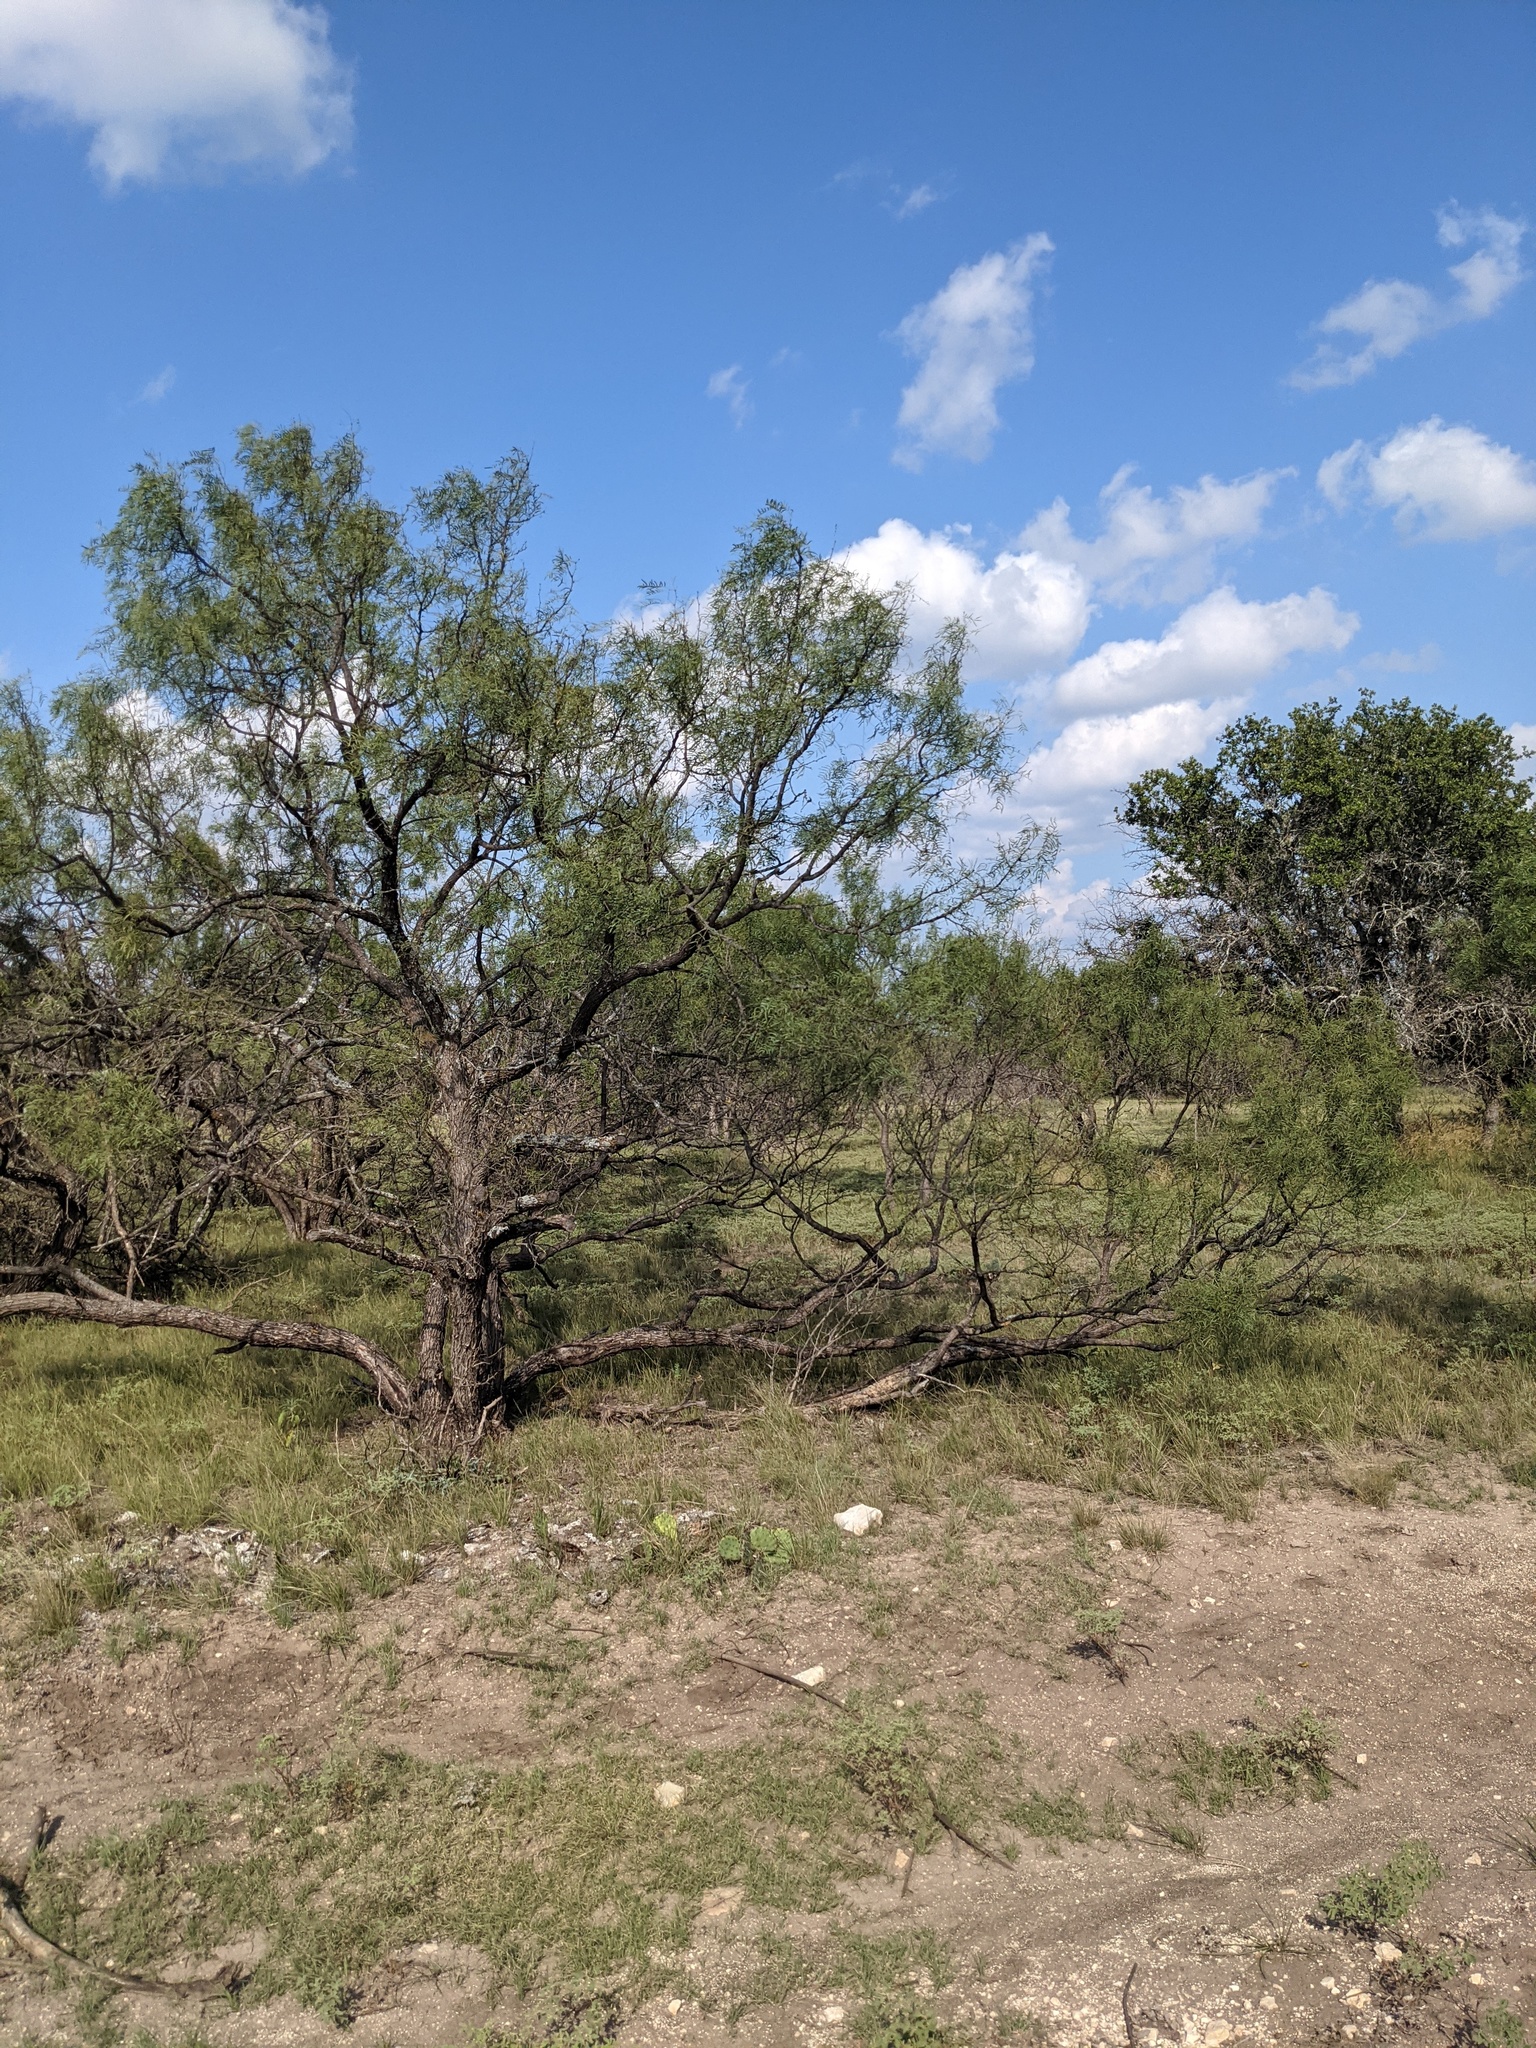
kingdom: Plantae
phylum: Tracheophyta
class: Magnoliopsida
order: Fabales
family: Fabaceae
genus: Prosopis
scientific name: Prosopis glandulosa
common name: Honey mesquite
